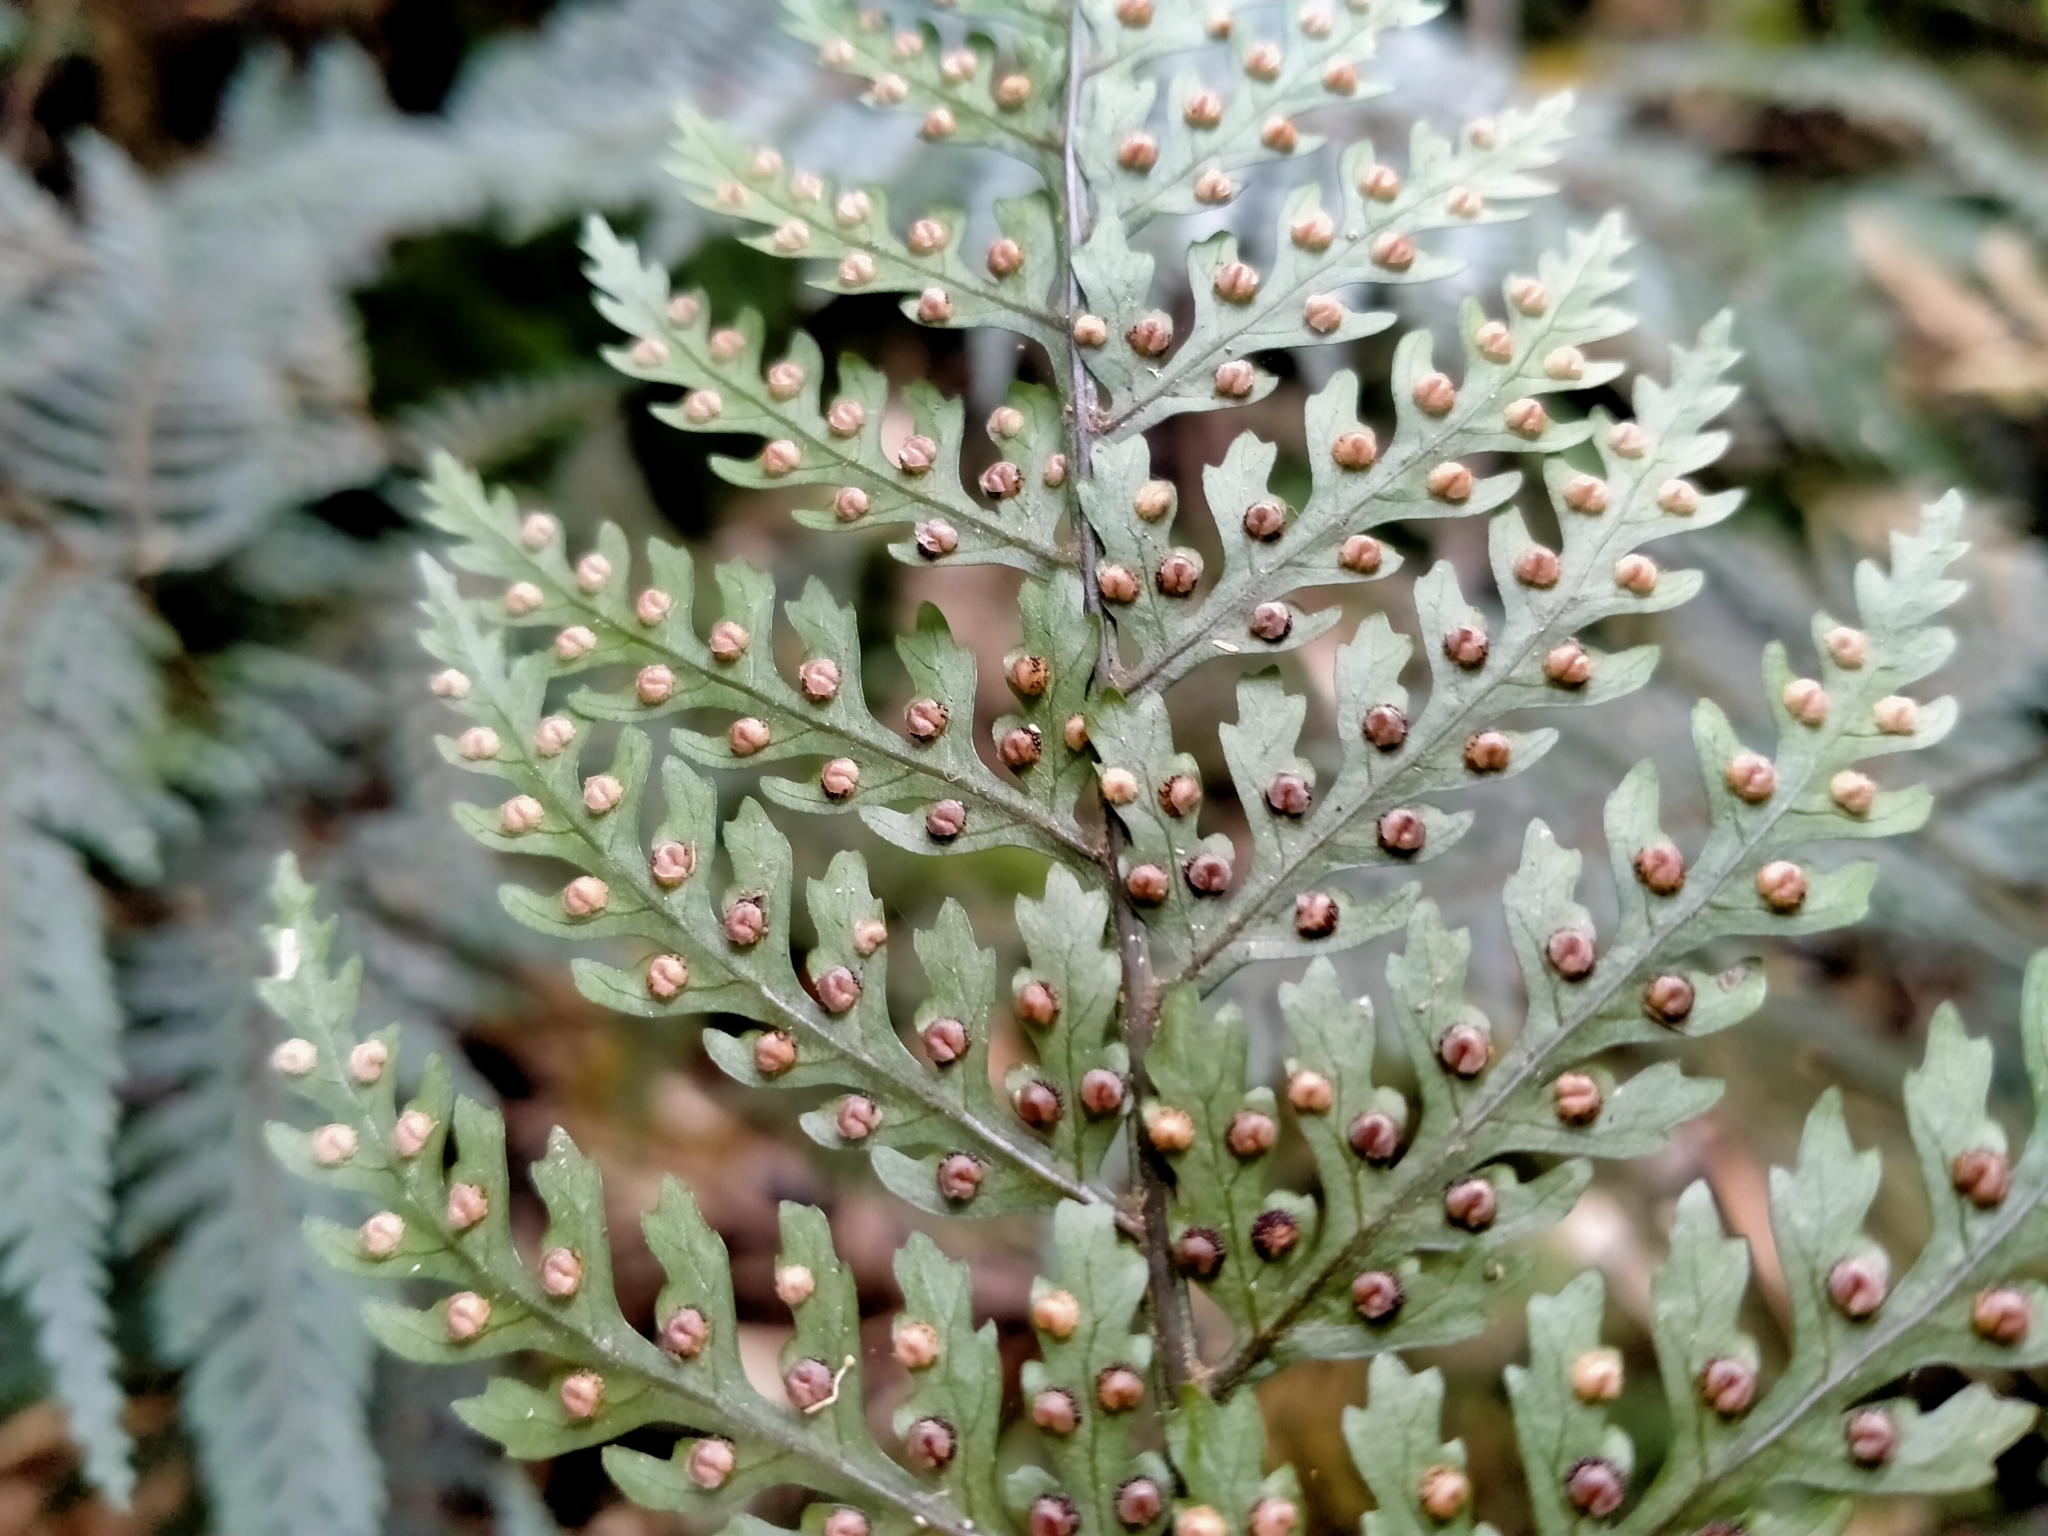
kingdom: Plantae
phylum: Tracheophyta
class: Polypodiopsida
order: Polypodiales
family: Dryopteridaceae
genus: Parapolystichum
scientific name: Parapolystichum glabellum
